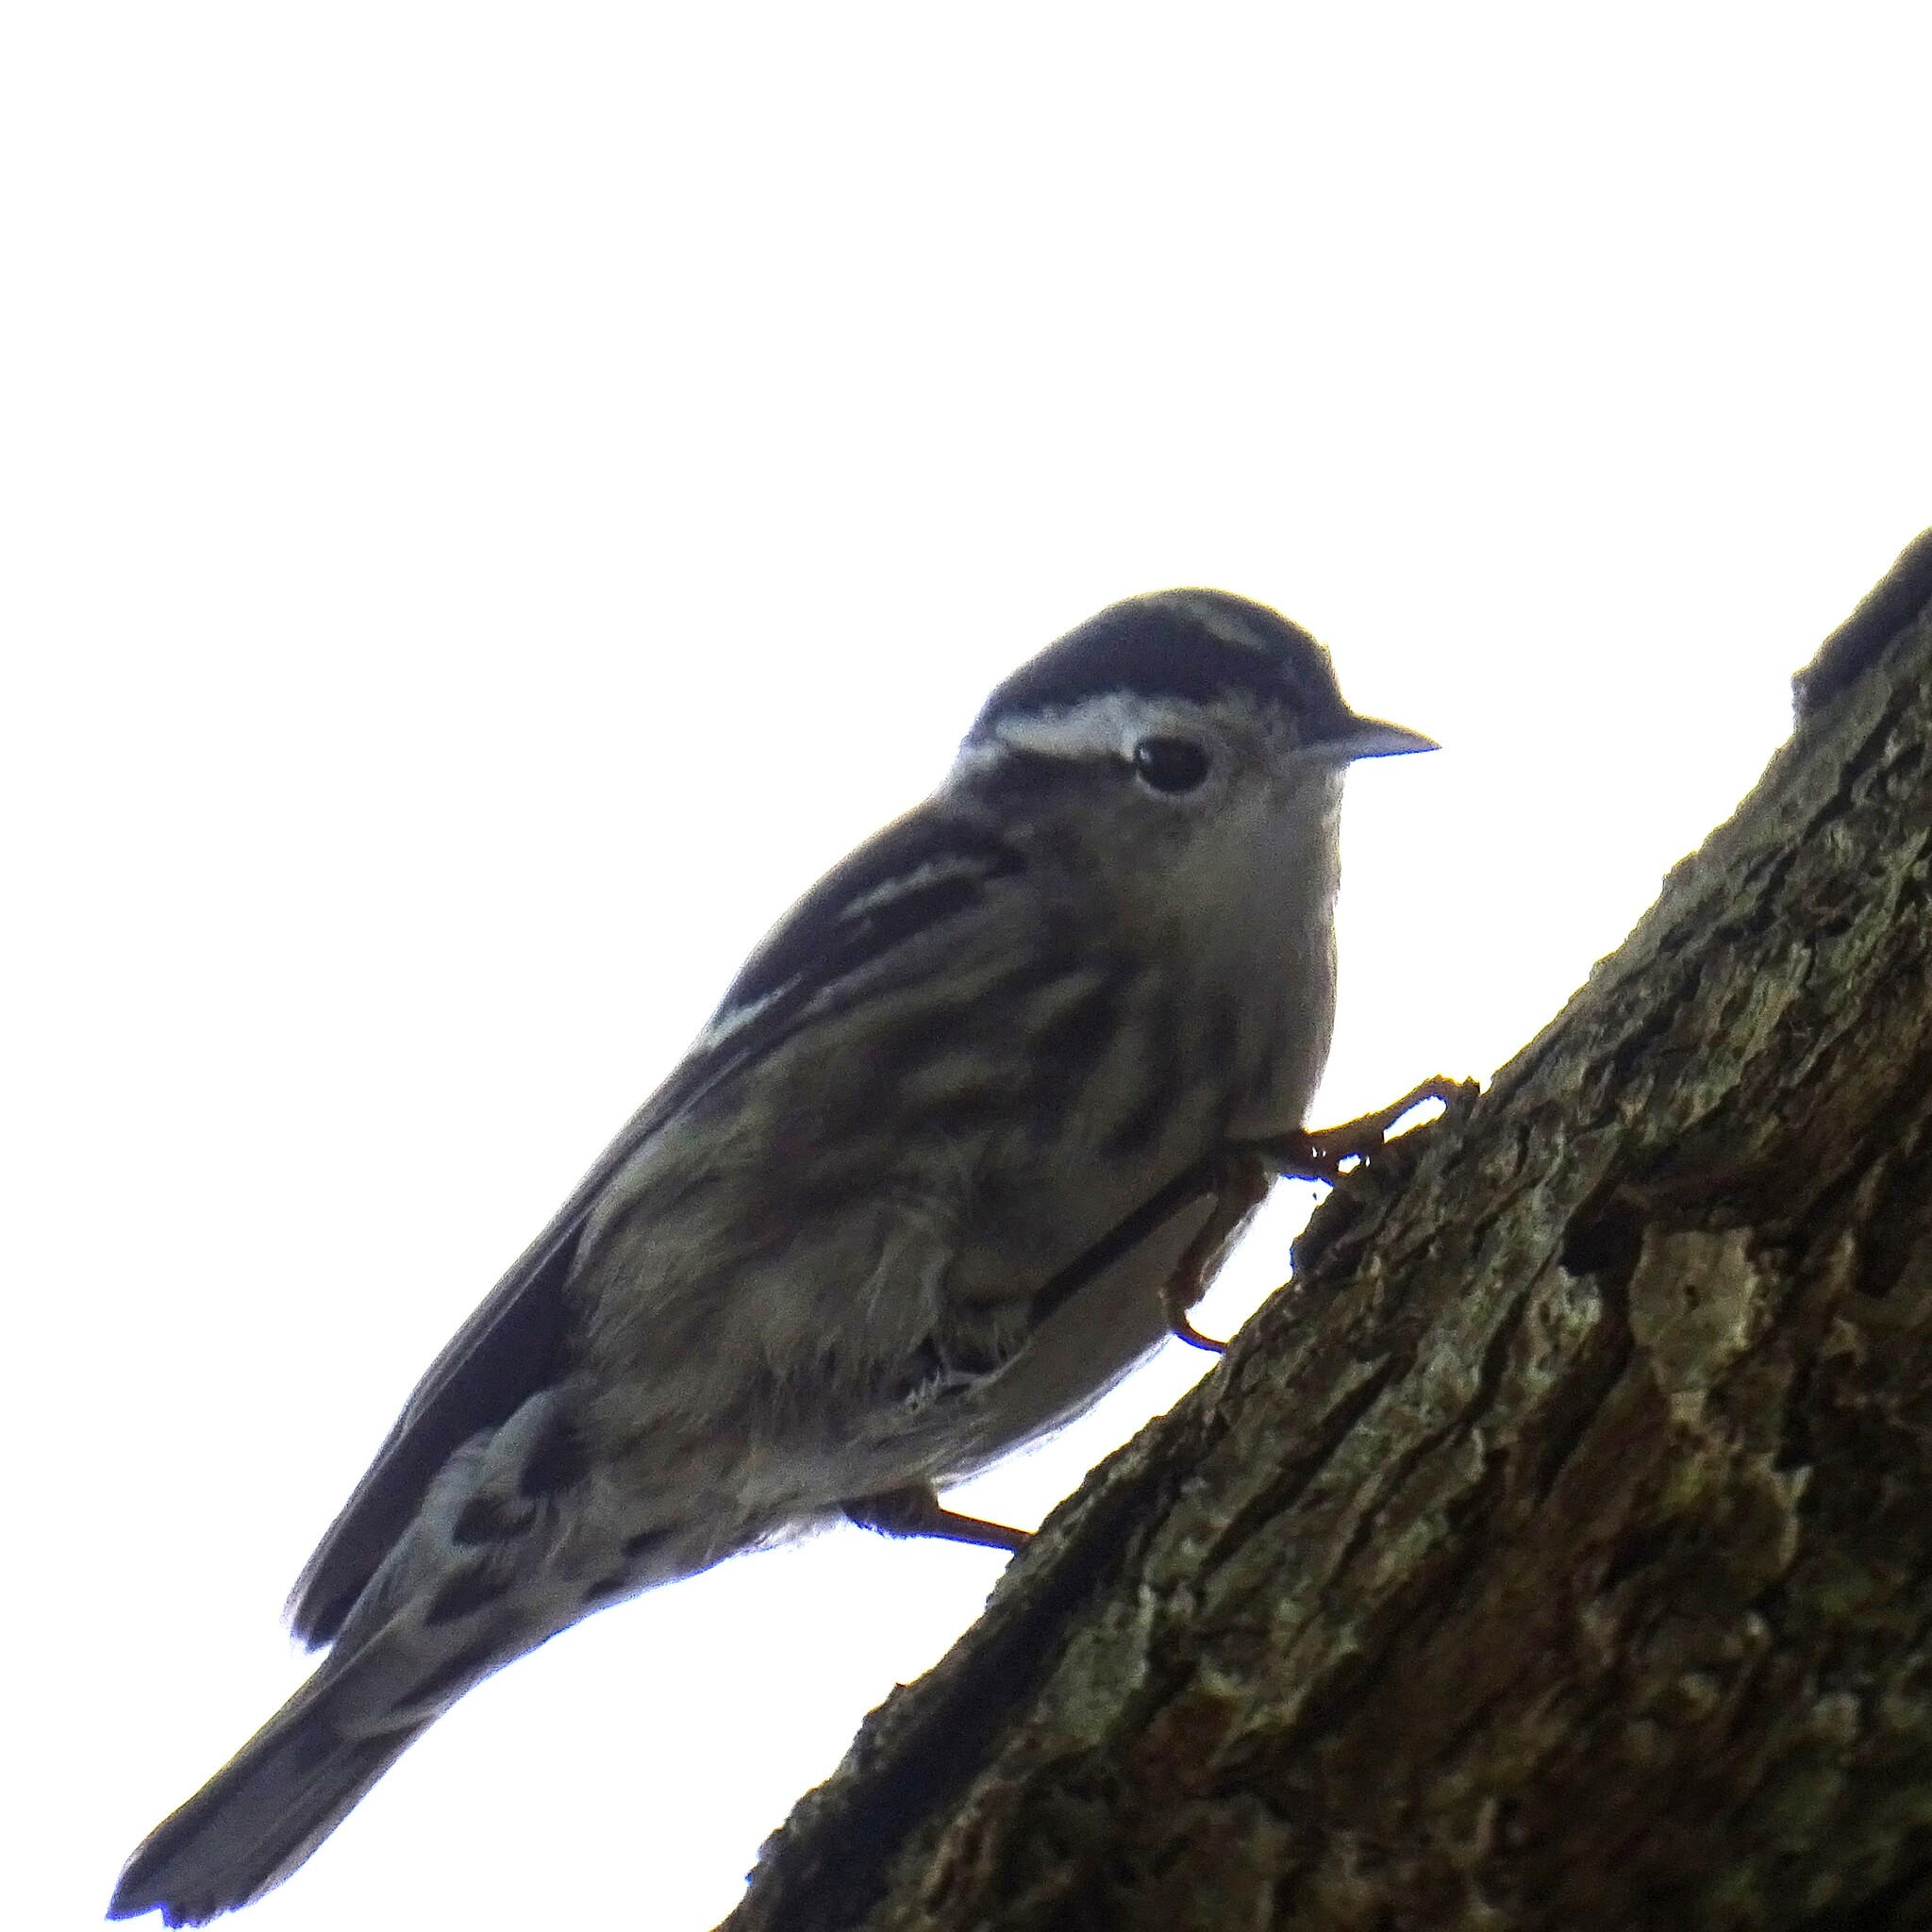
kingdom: Animalia
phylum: Chordata
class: Aves
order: Passeriformes
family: Parulidae
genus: Mniotilta
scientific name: Mniotilta varia
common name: Black-and-white warbler
